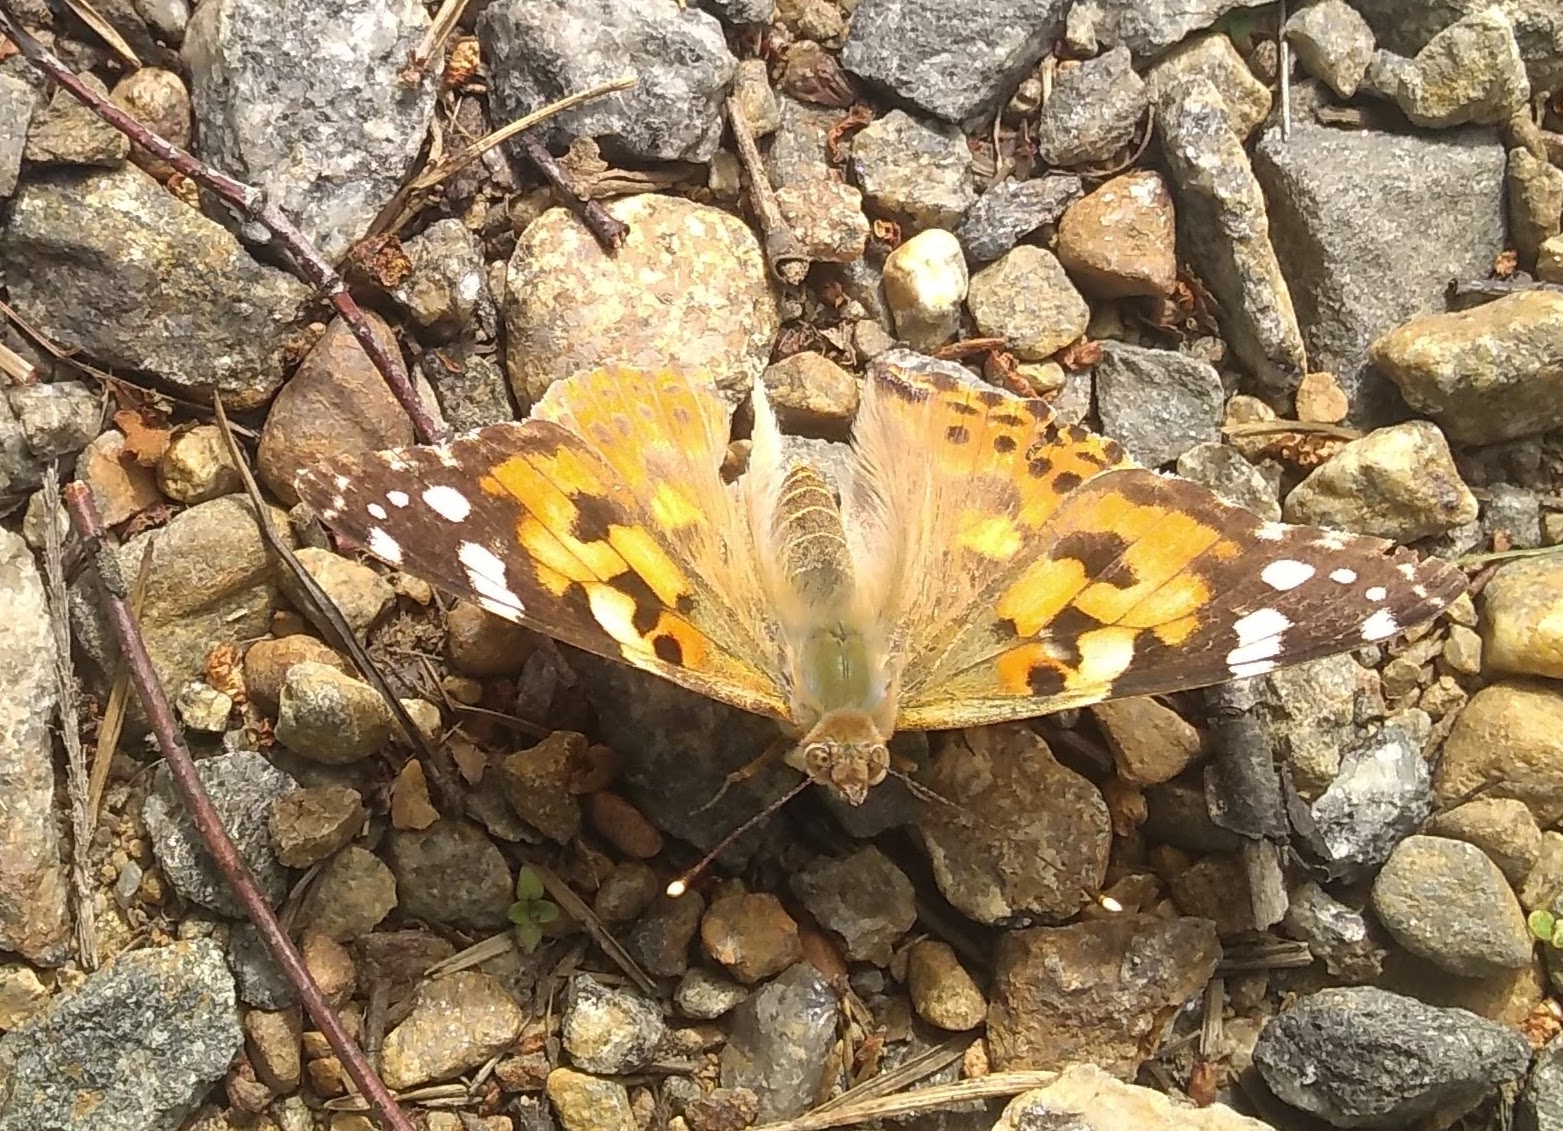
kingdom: Animalia
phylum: Arthropoda
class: Insecta
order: Lepidoptera
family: Nymphalidae
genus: Vanessa
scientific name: Vanessa cardui
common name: Painted lady
